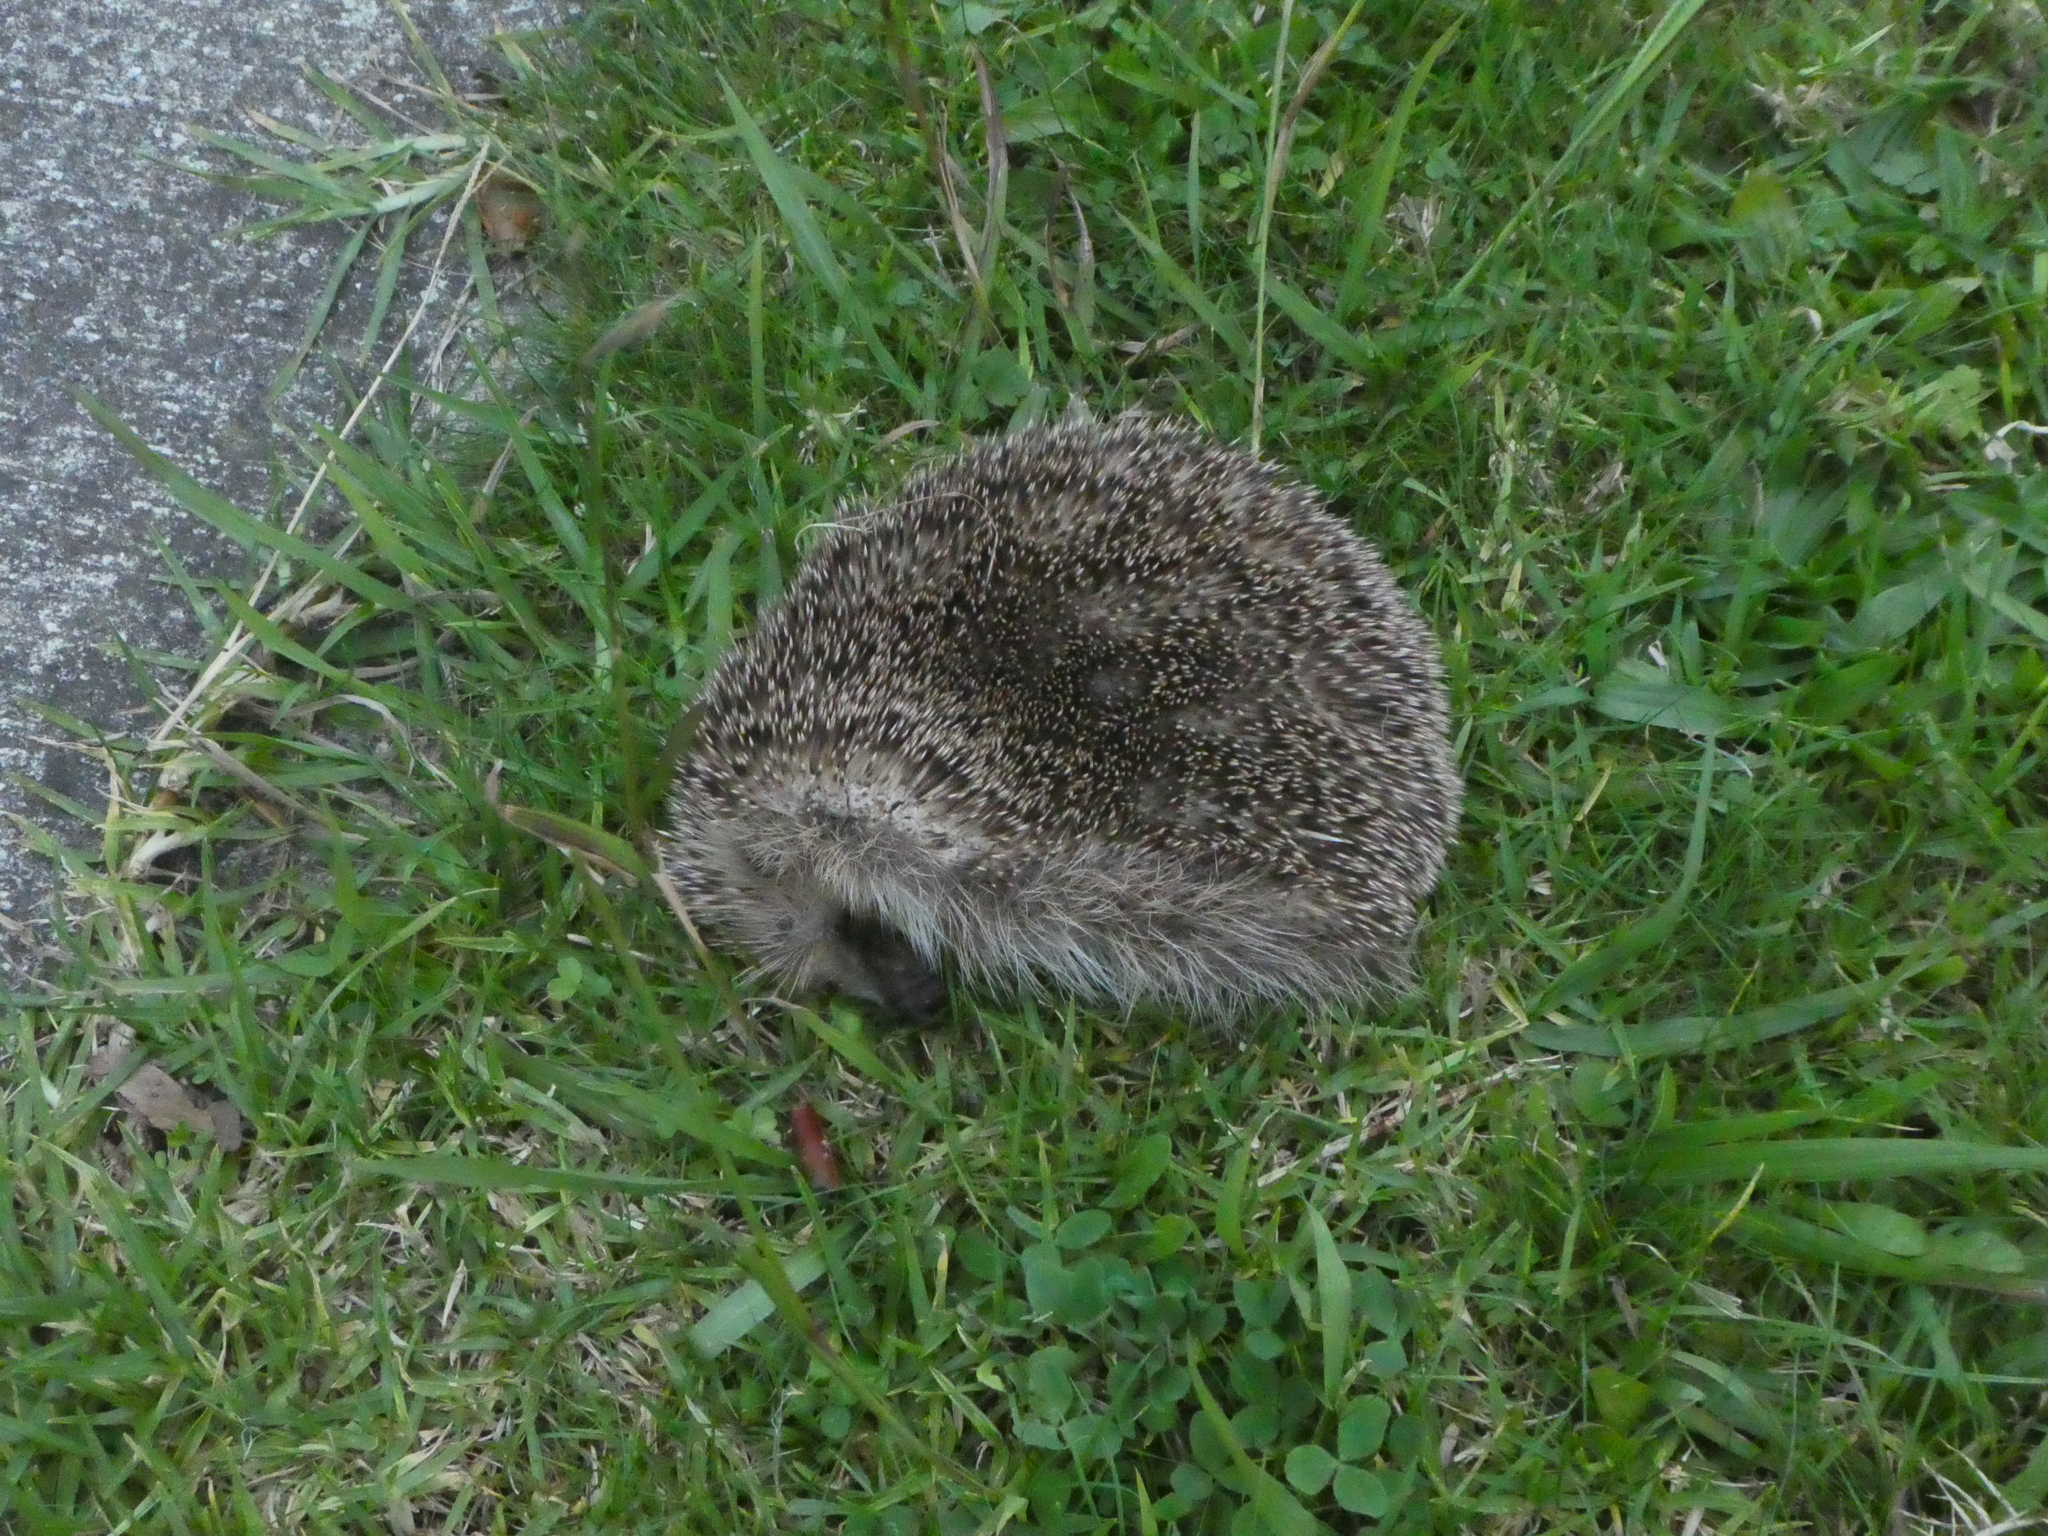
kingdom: Animalia
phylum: Chordata
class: Mammalia
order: Erinaceomorpha
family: Erinaceidae
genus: Erinaceus
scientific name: Erinaceus europaeus
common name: West european hedgehog
